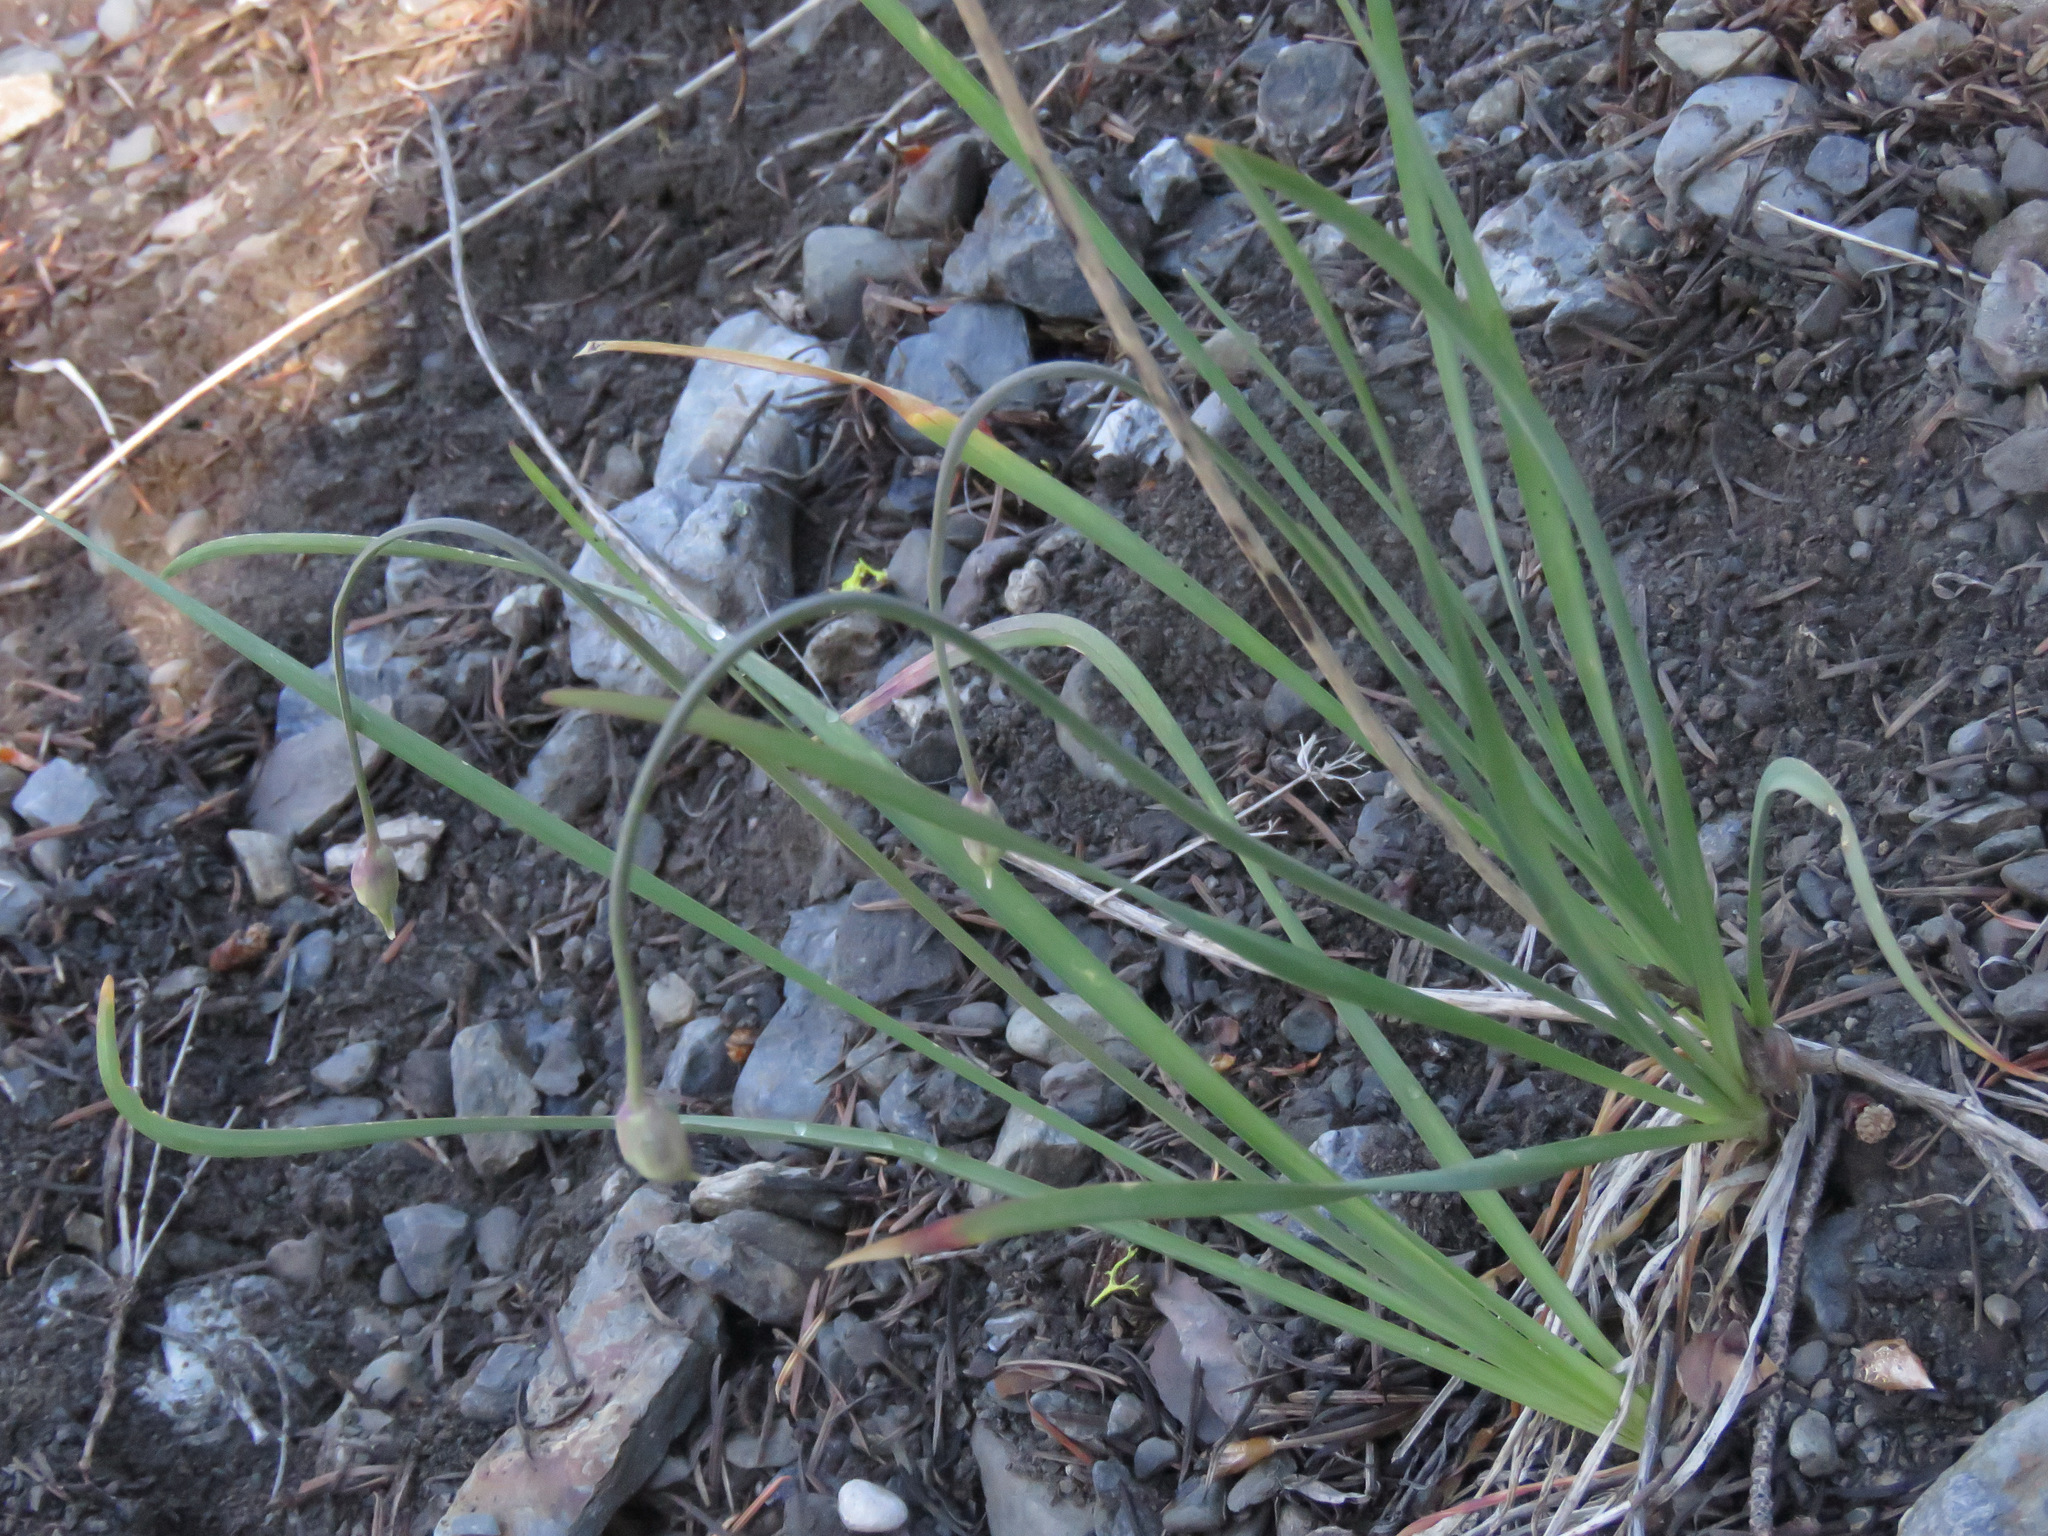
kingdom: Plantae
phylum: Tracheophyta
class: Liliopsida
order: Asparagales
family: Amaryllidaceae
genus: Allium
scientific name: Allium cernuum
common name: Nodding onion
